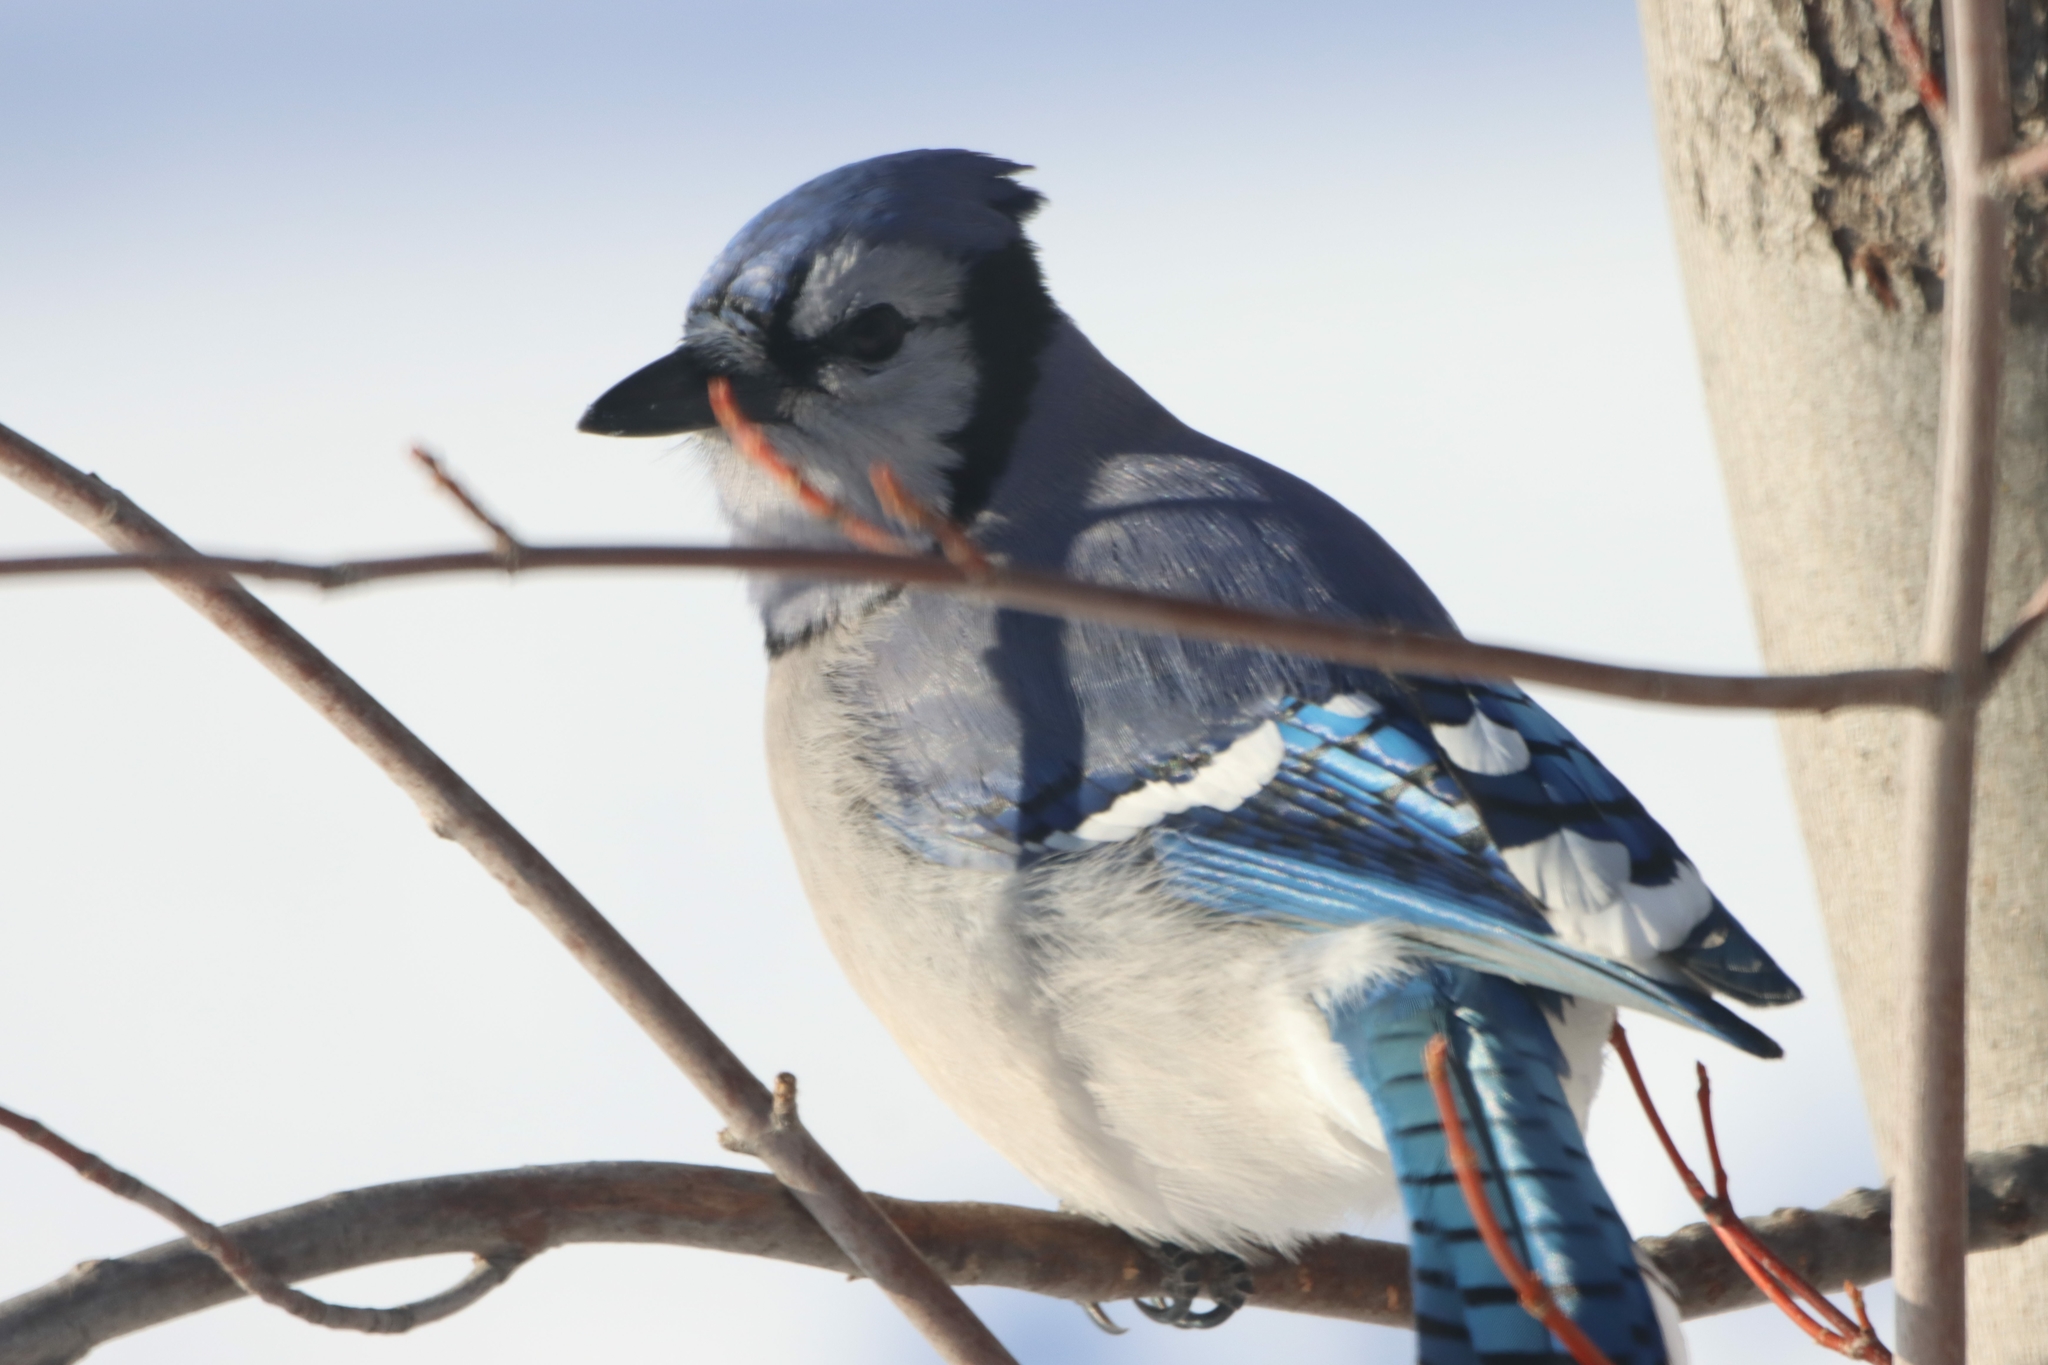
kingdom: Animalia
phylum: Chordata
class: Aves
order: Passeriformes
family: Corvidae
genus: Cyanocitta
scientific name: Cyanocitta cristata
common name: Blue jay
